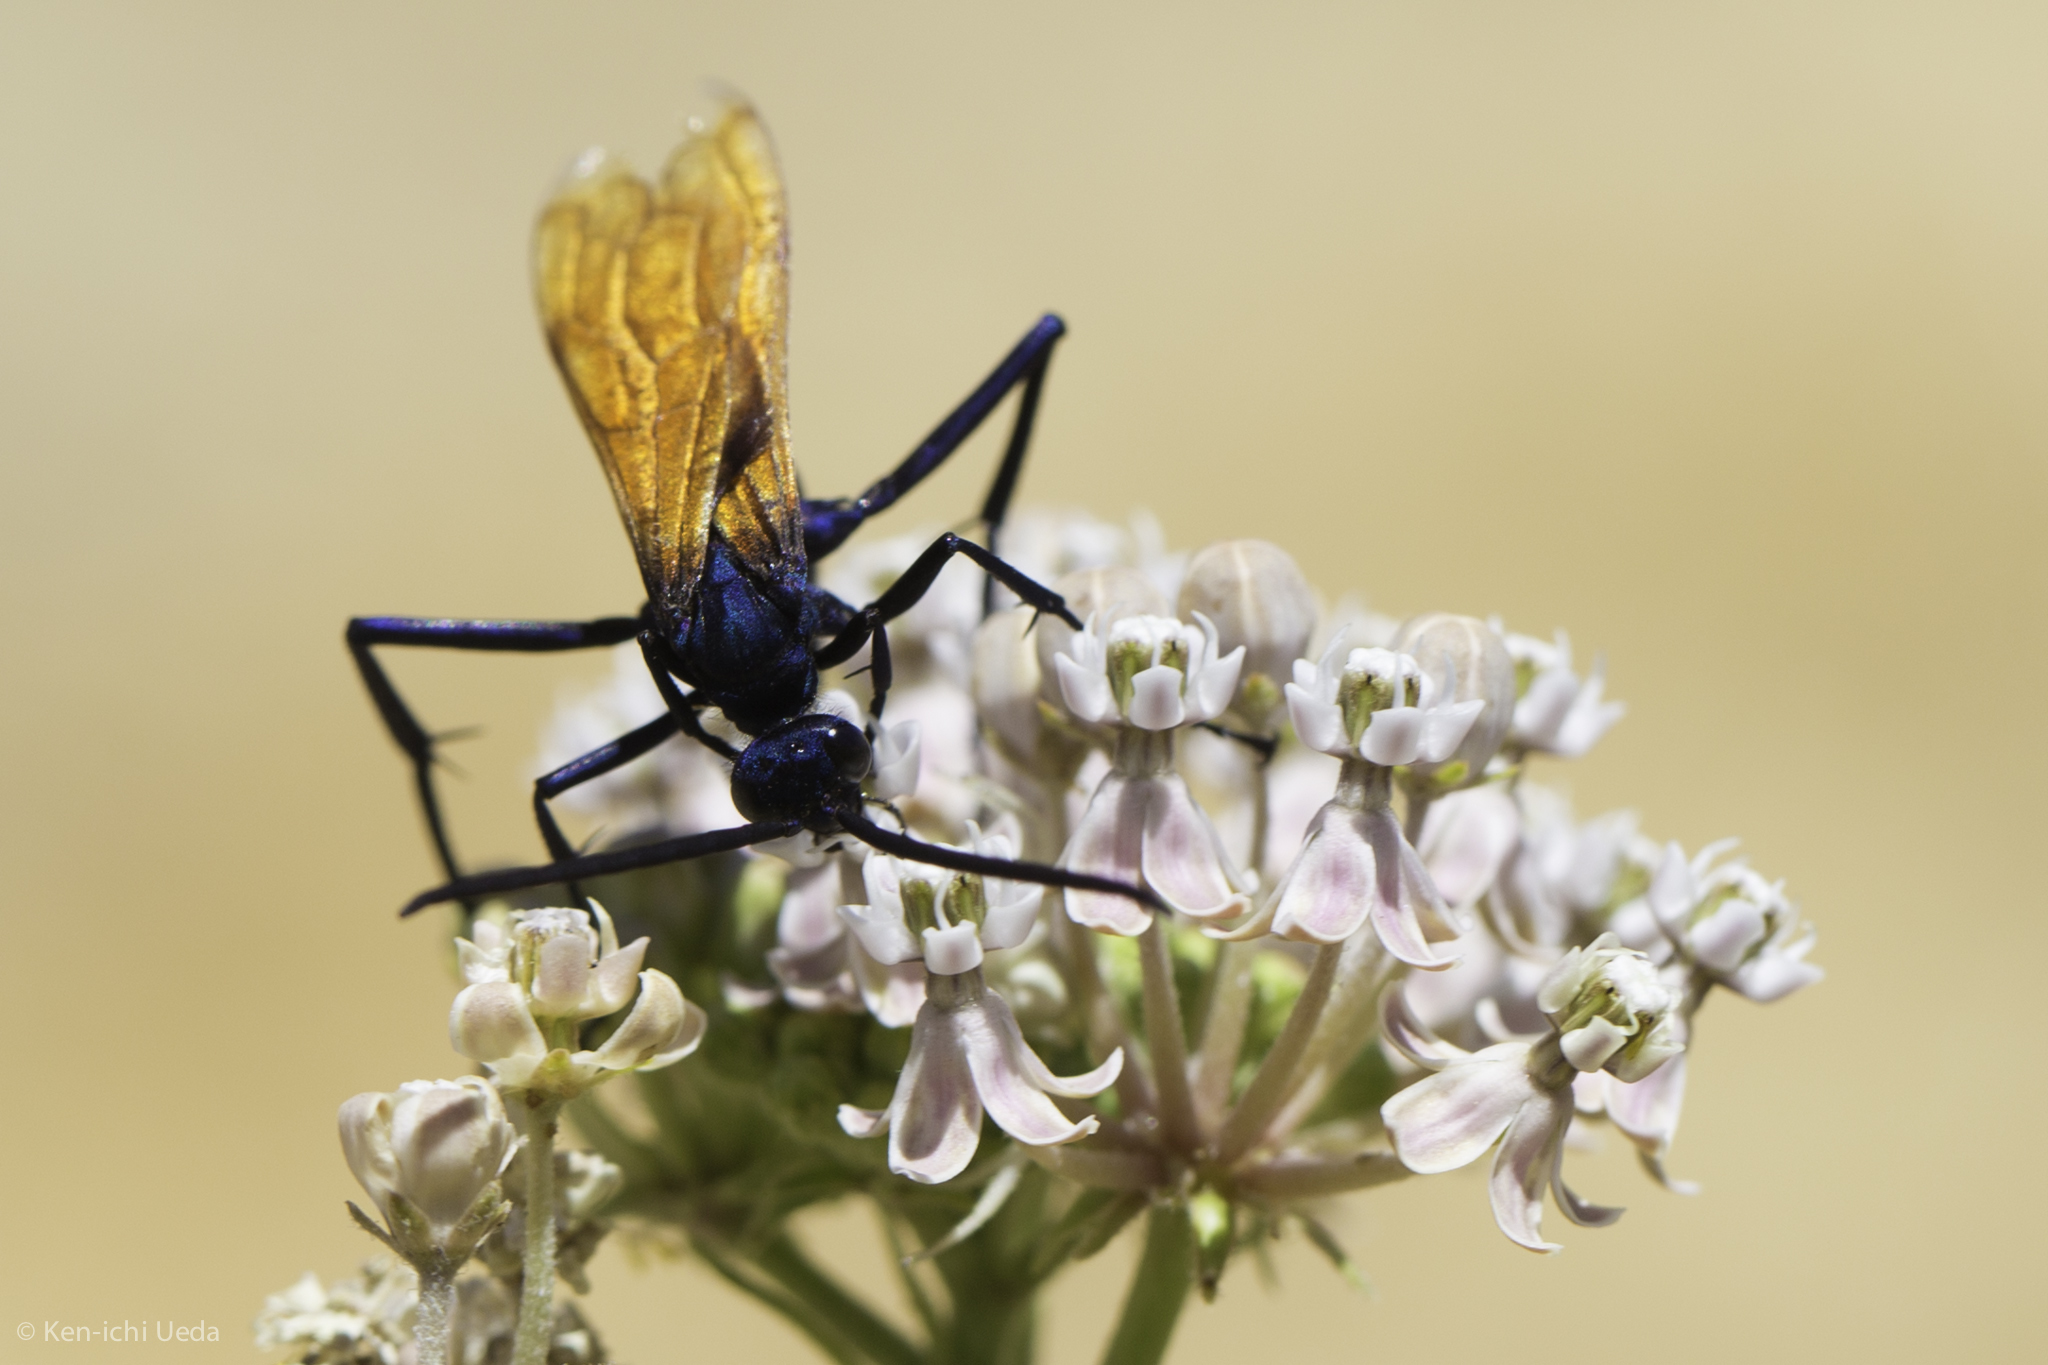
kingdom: Animalia
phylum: Arthropoda
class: Insecta
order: Hymenoptera
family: Pompilidae
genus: Pepsis
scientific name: Pepsis pallidolimbata
